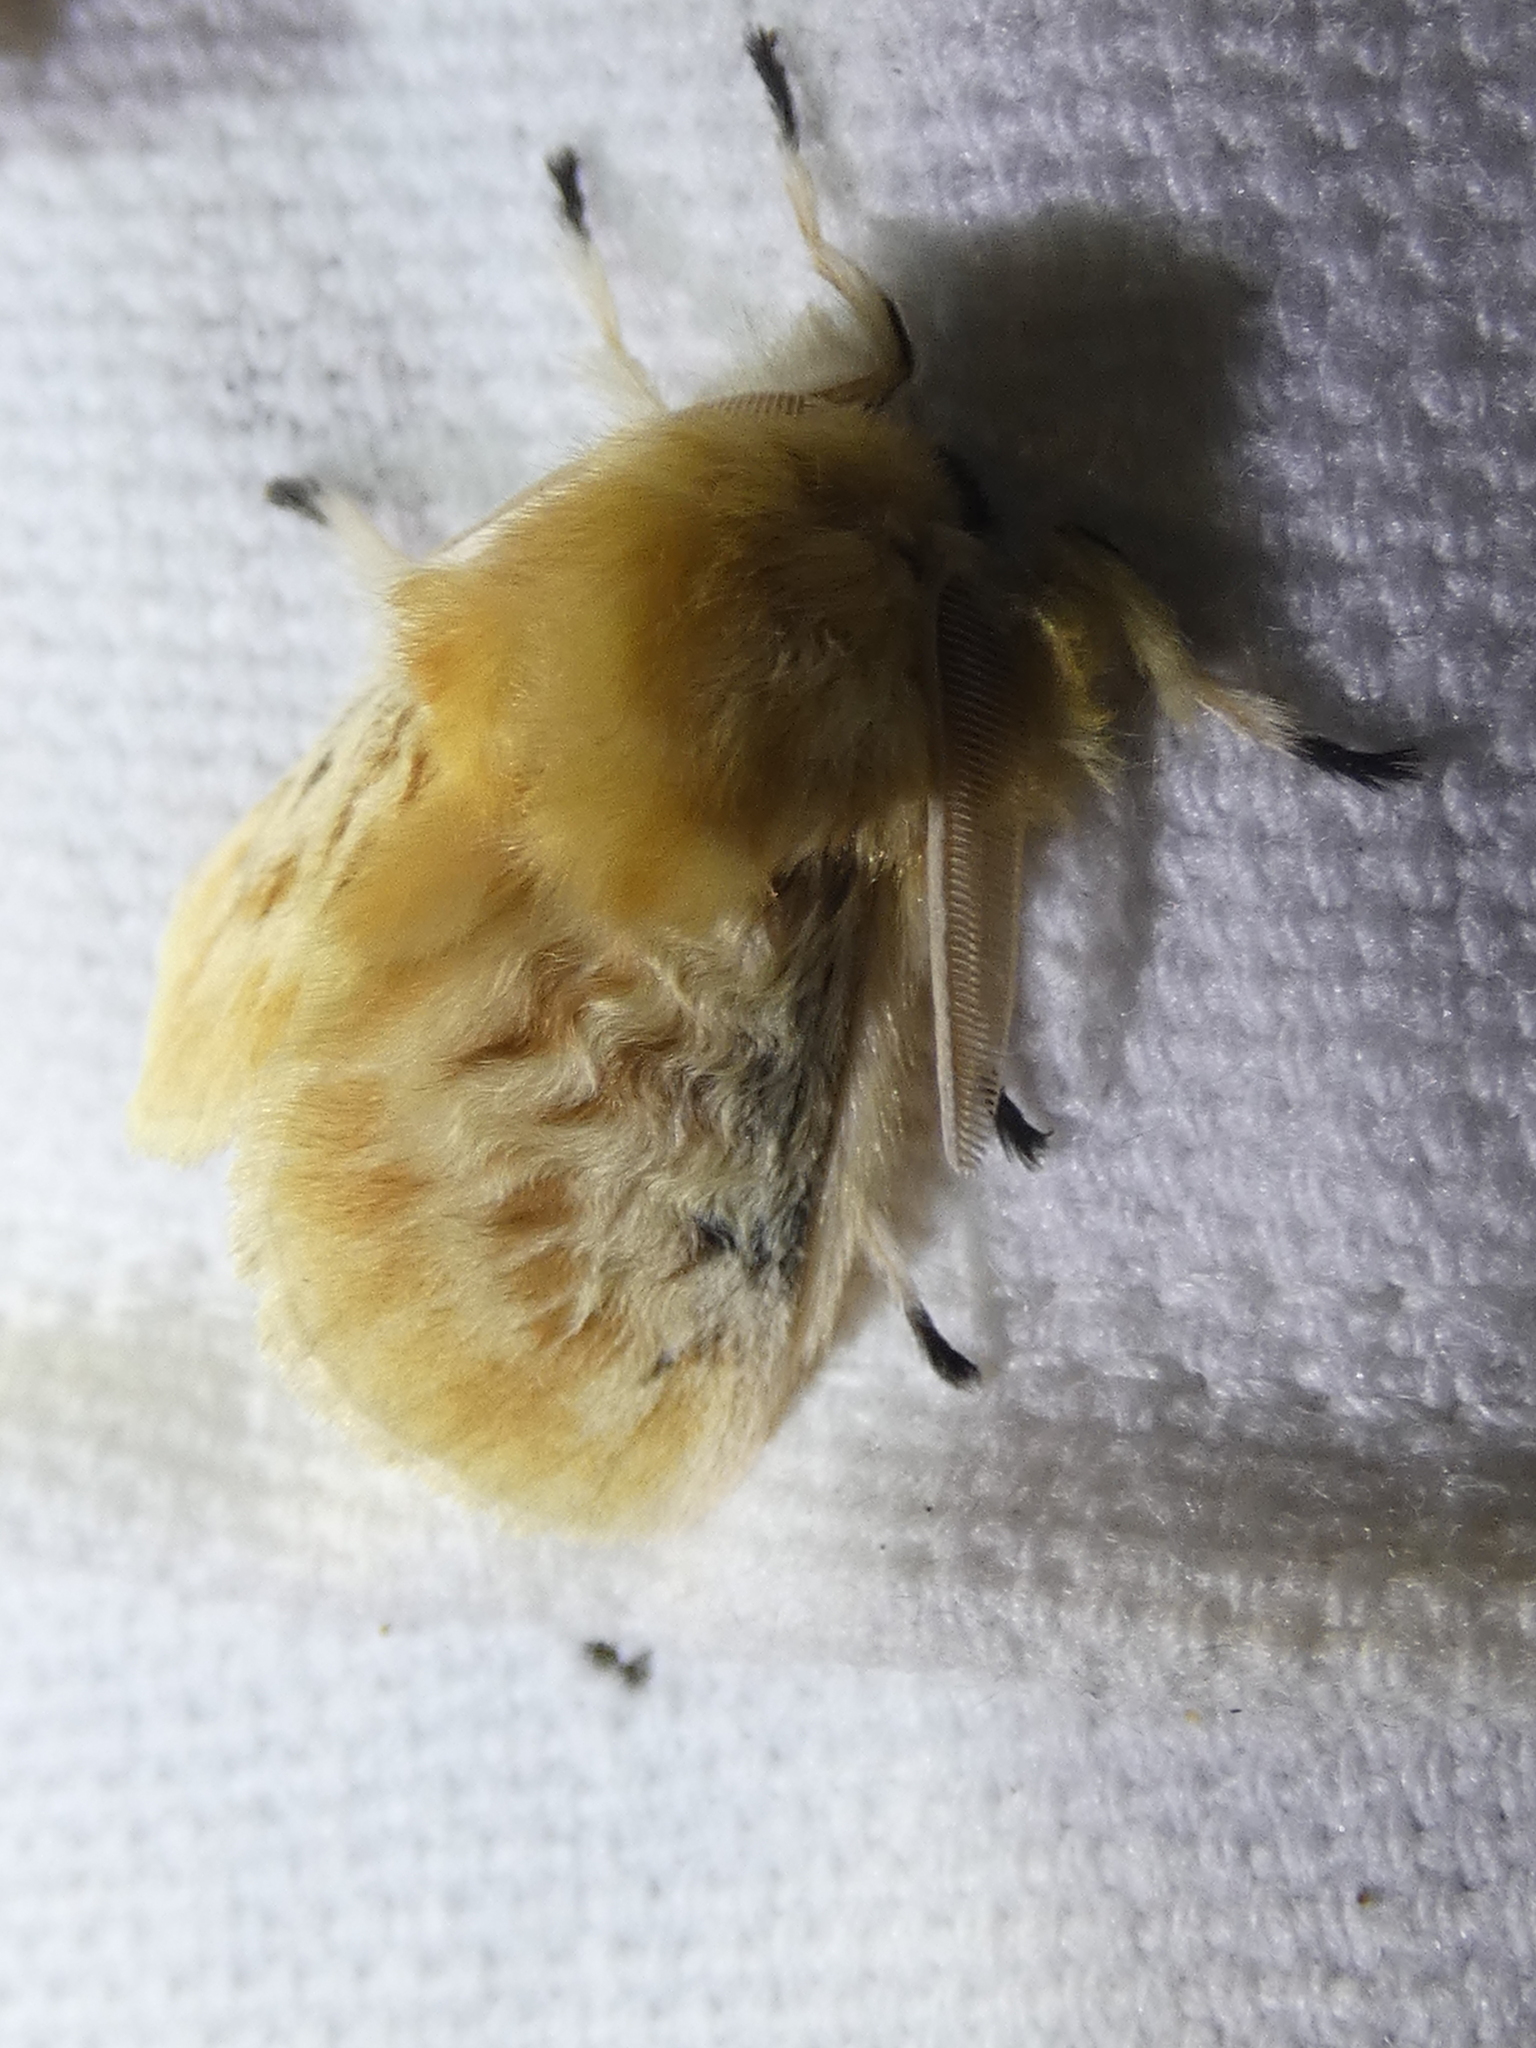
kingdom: Animalia
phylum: Arthropoda
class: Insecta
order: Lepidoptera
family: Megalopygidae
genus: Megalopyge
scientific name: Megalopyge crispata
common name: Black-waved flannel moth
